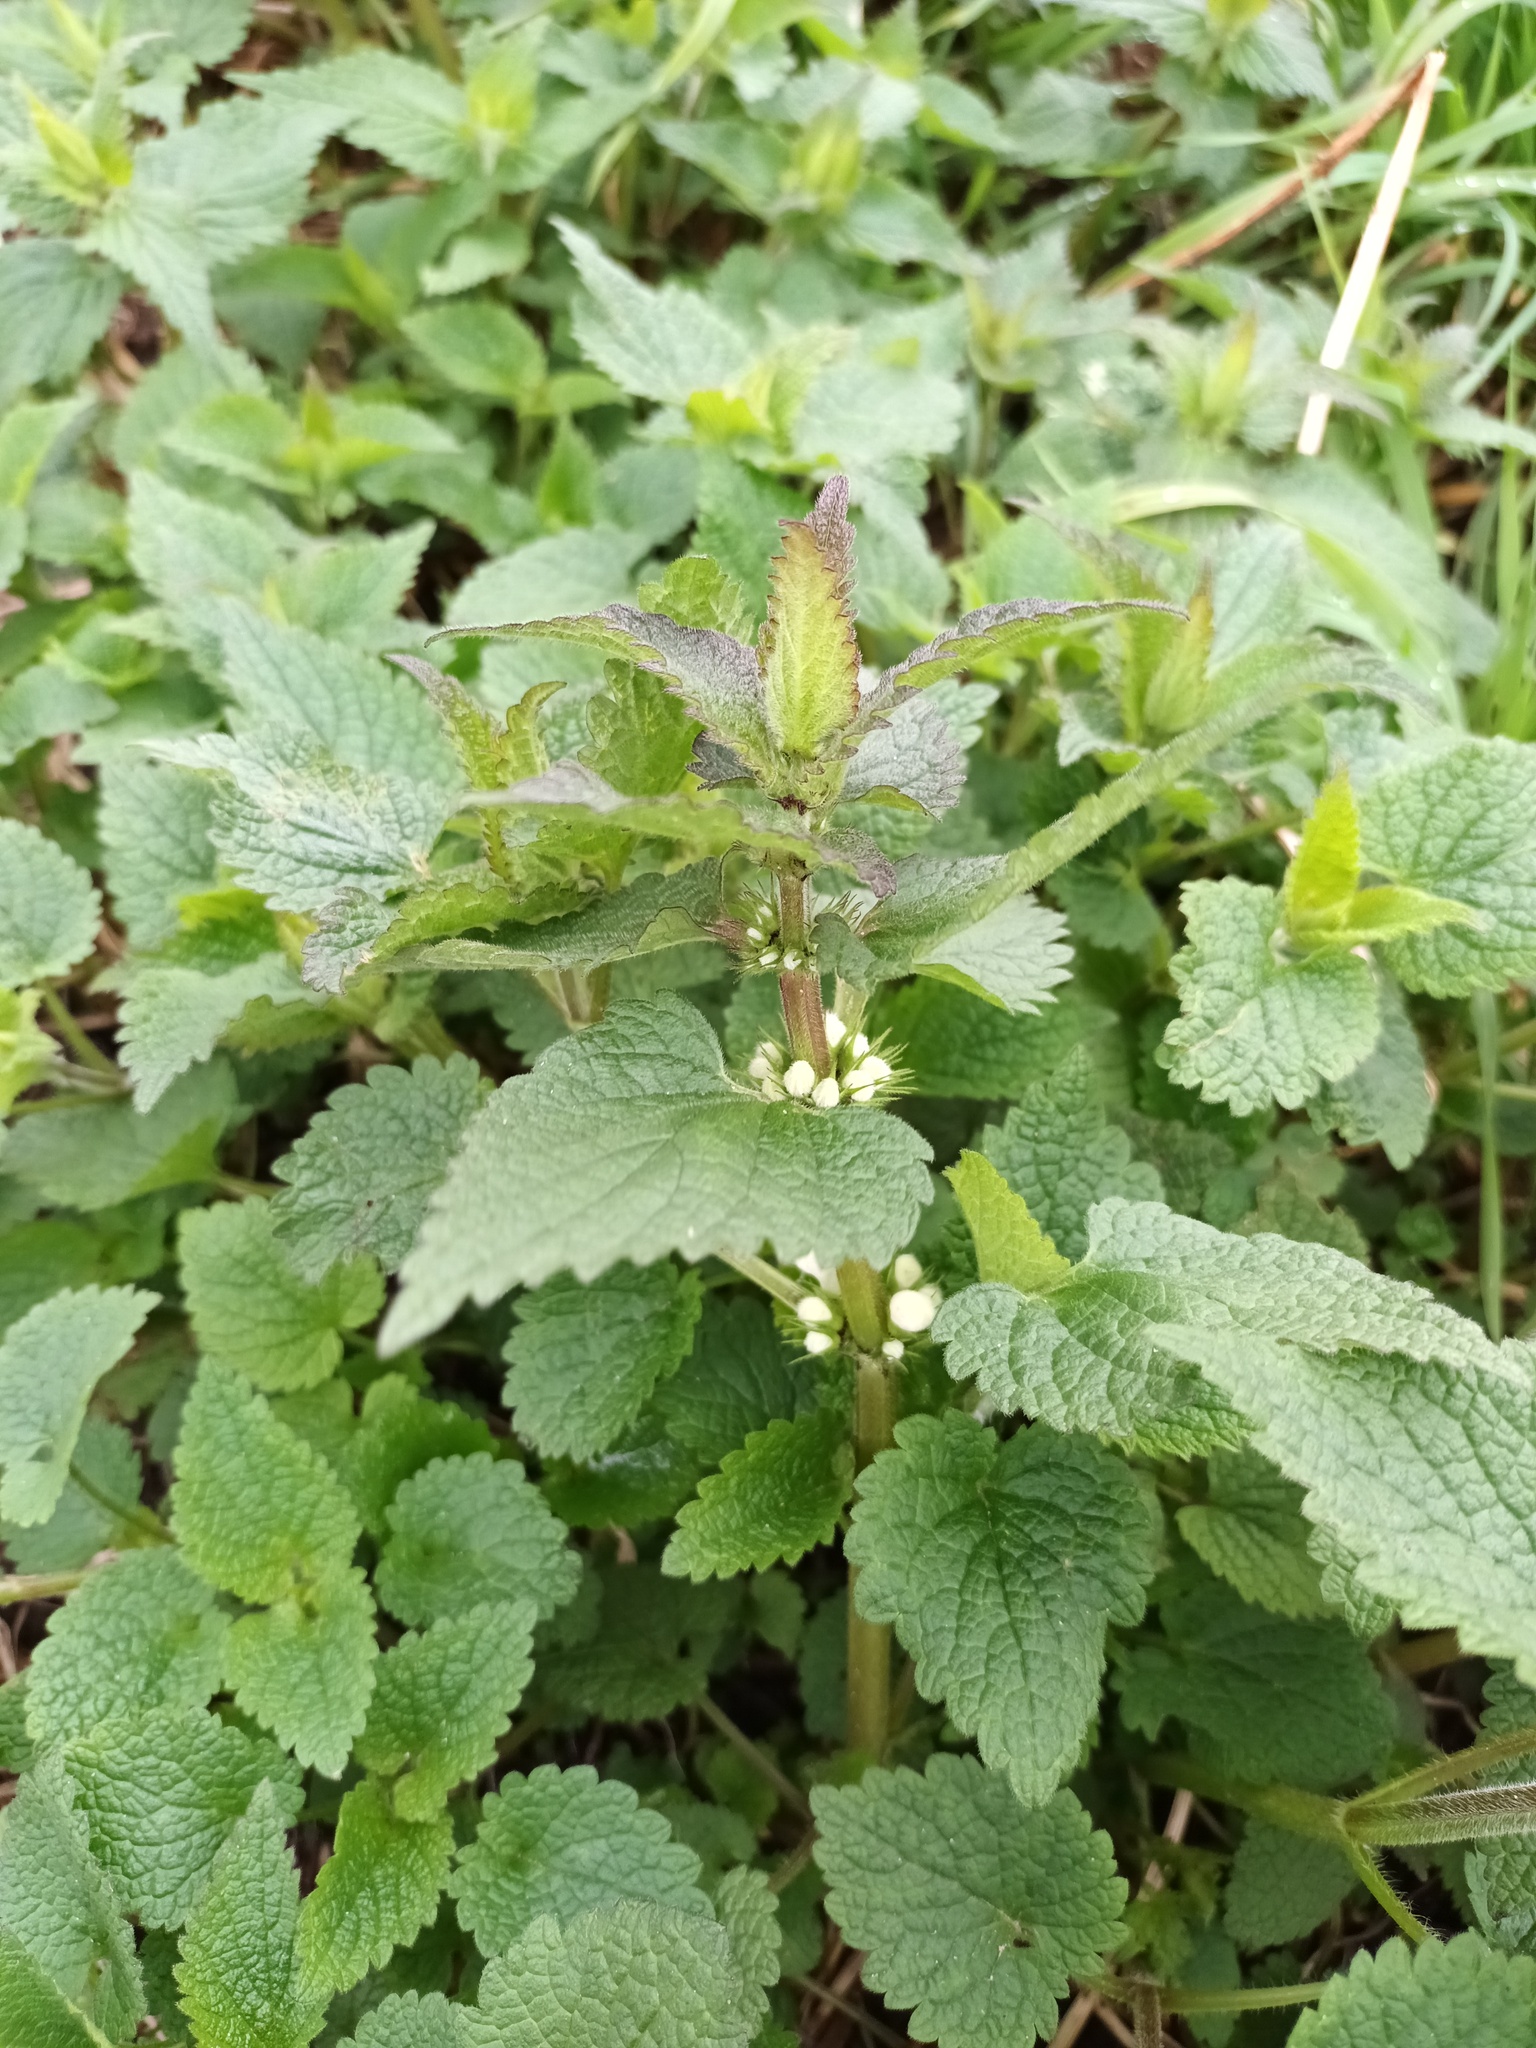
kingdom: Plantae
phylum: Tracheophyta
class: Magnoliopsida
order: Lamiales
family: Lamiaceae
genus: Lamium
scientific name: Lamium album
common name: White dead-nettle
